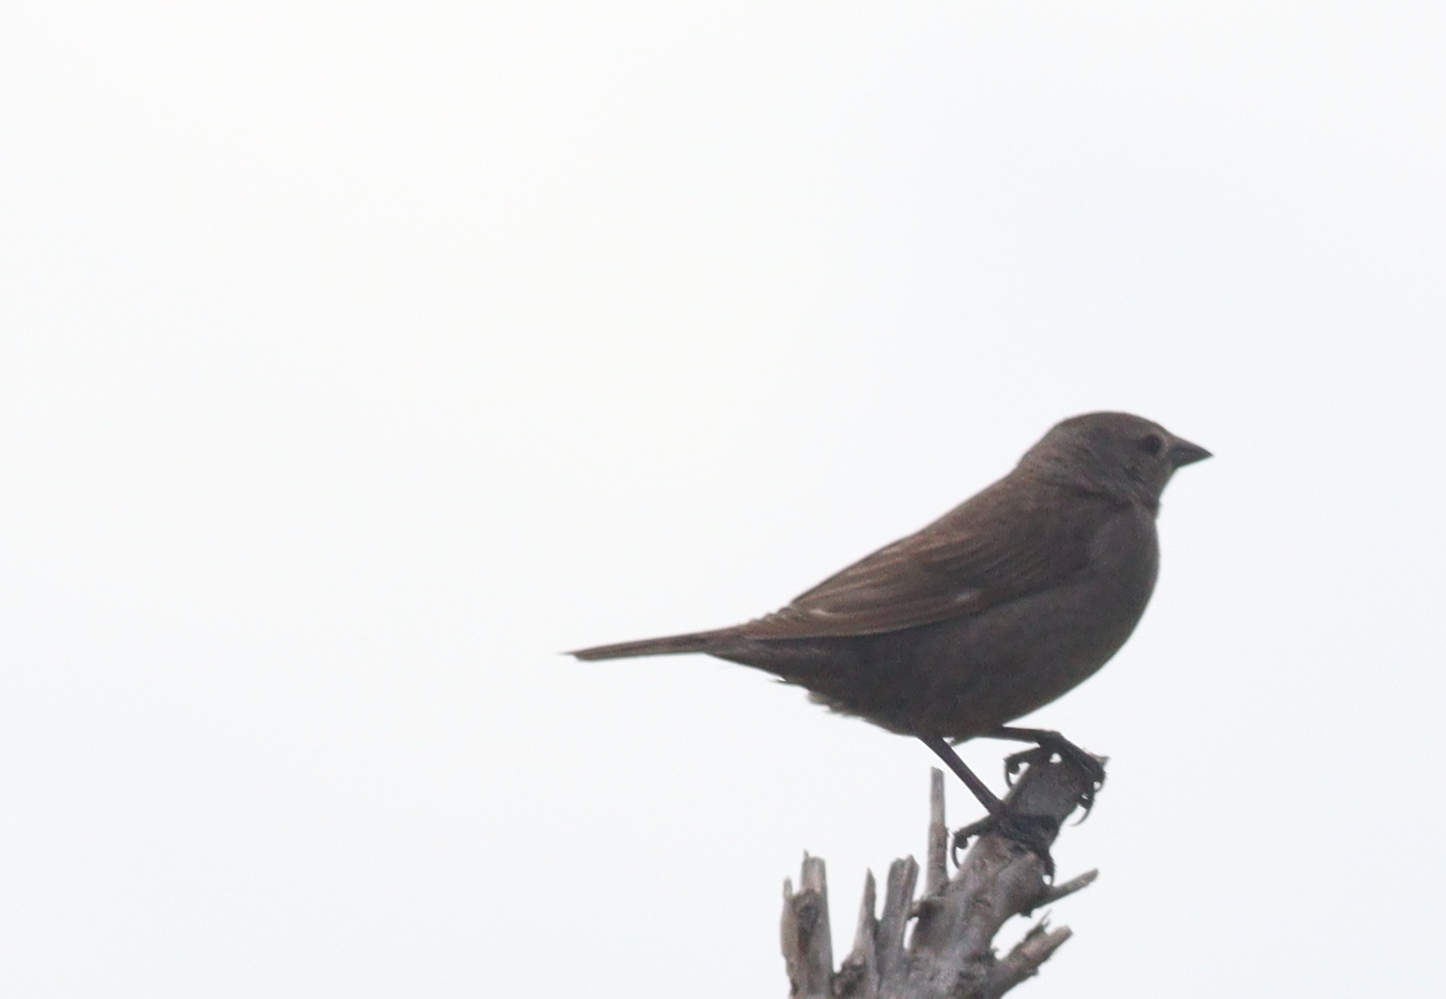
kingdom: Animalia
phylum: Chordata
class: Aves
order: Passeriformes
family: Icteridae
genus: Molothrus
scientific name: Molothrus bonariensis
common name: Shiny cowbird
